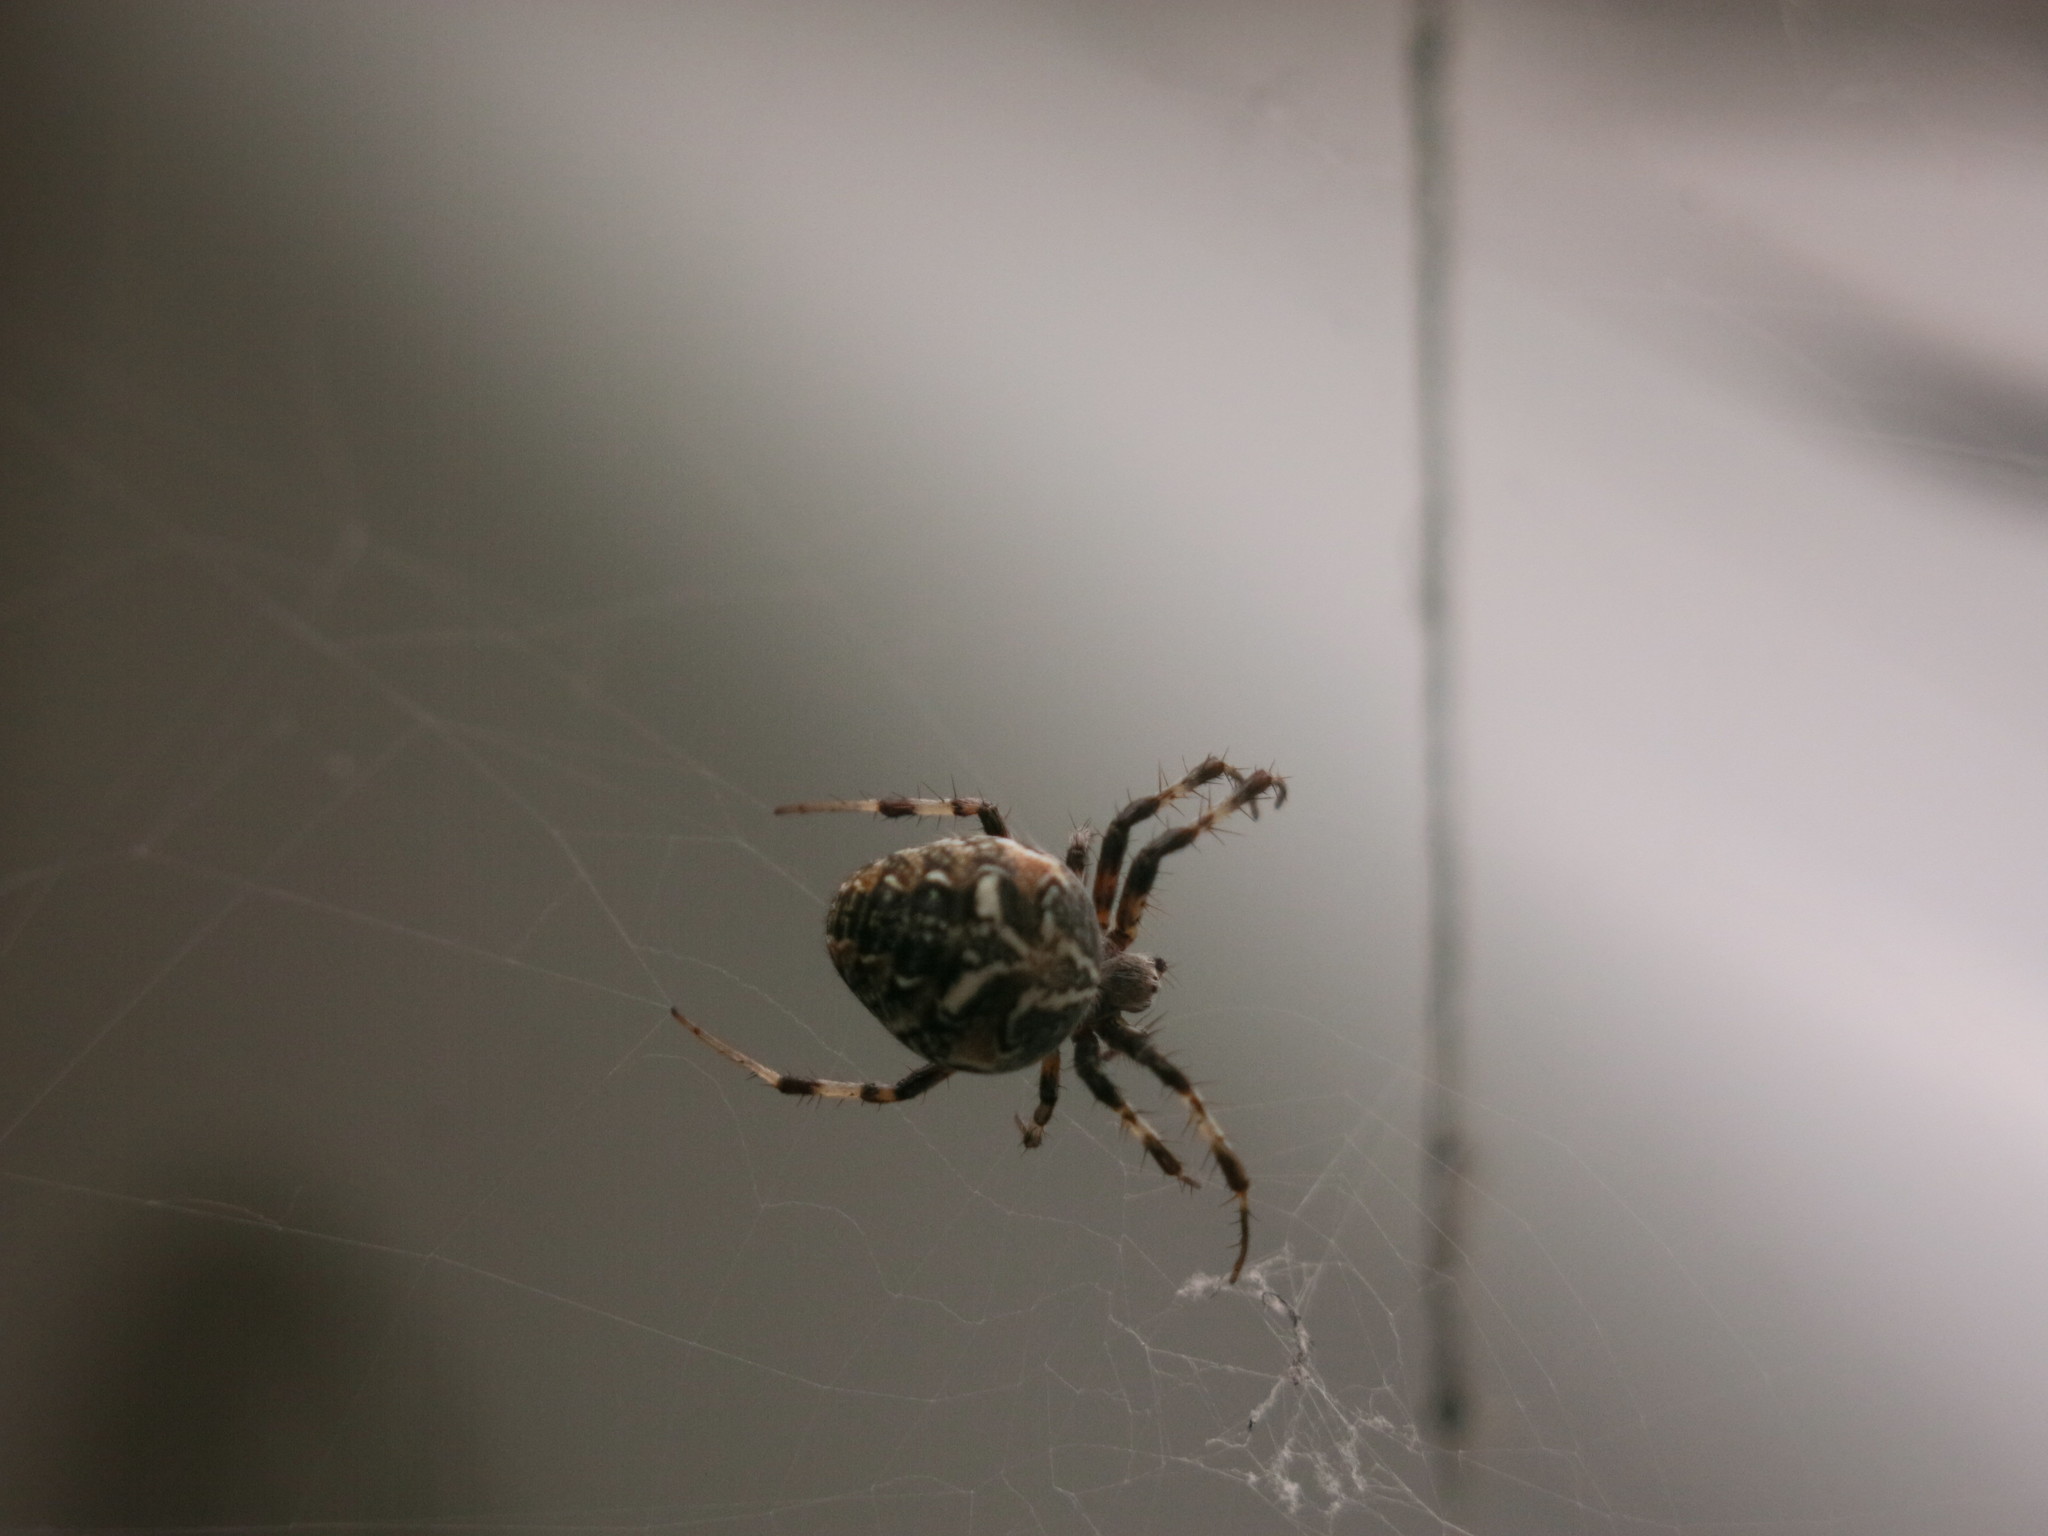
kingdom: Animalia
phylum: Arthropoda
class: Arachnida
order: Araneae
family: Araneidae
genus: Metepeira
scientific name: Metepeira
